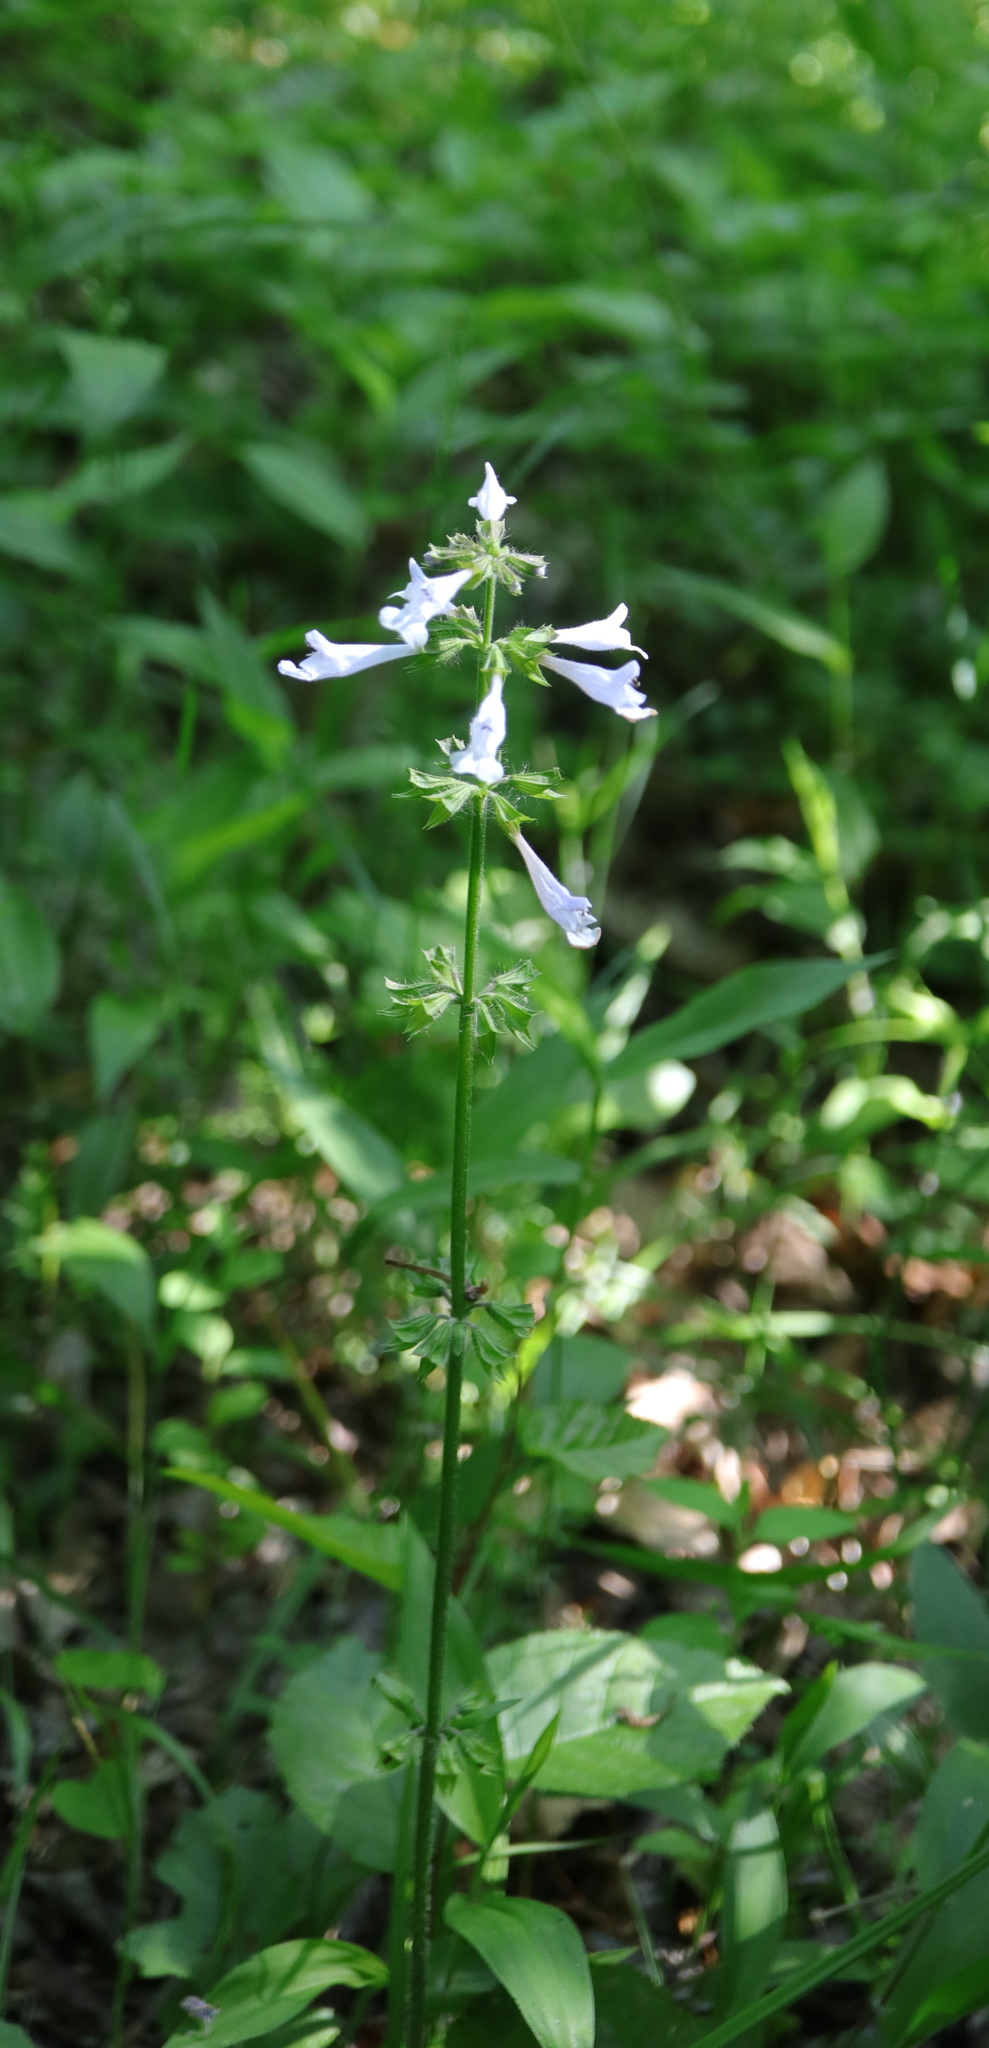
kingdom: Plantae
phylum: Tracheophyta
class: Magnoliopsida
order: Lamiales
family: Lamiaceae
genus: Salvia
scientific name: Salvia lyrata
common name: Cancerweed
